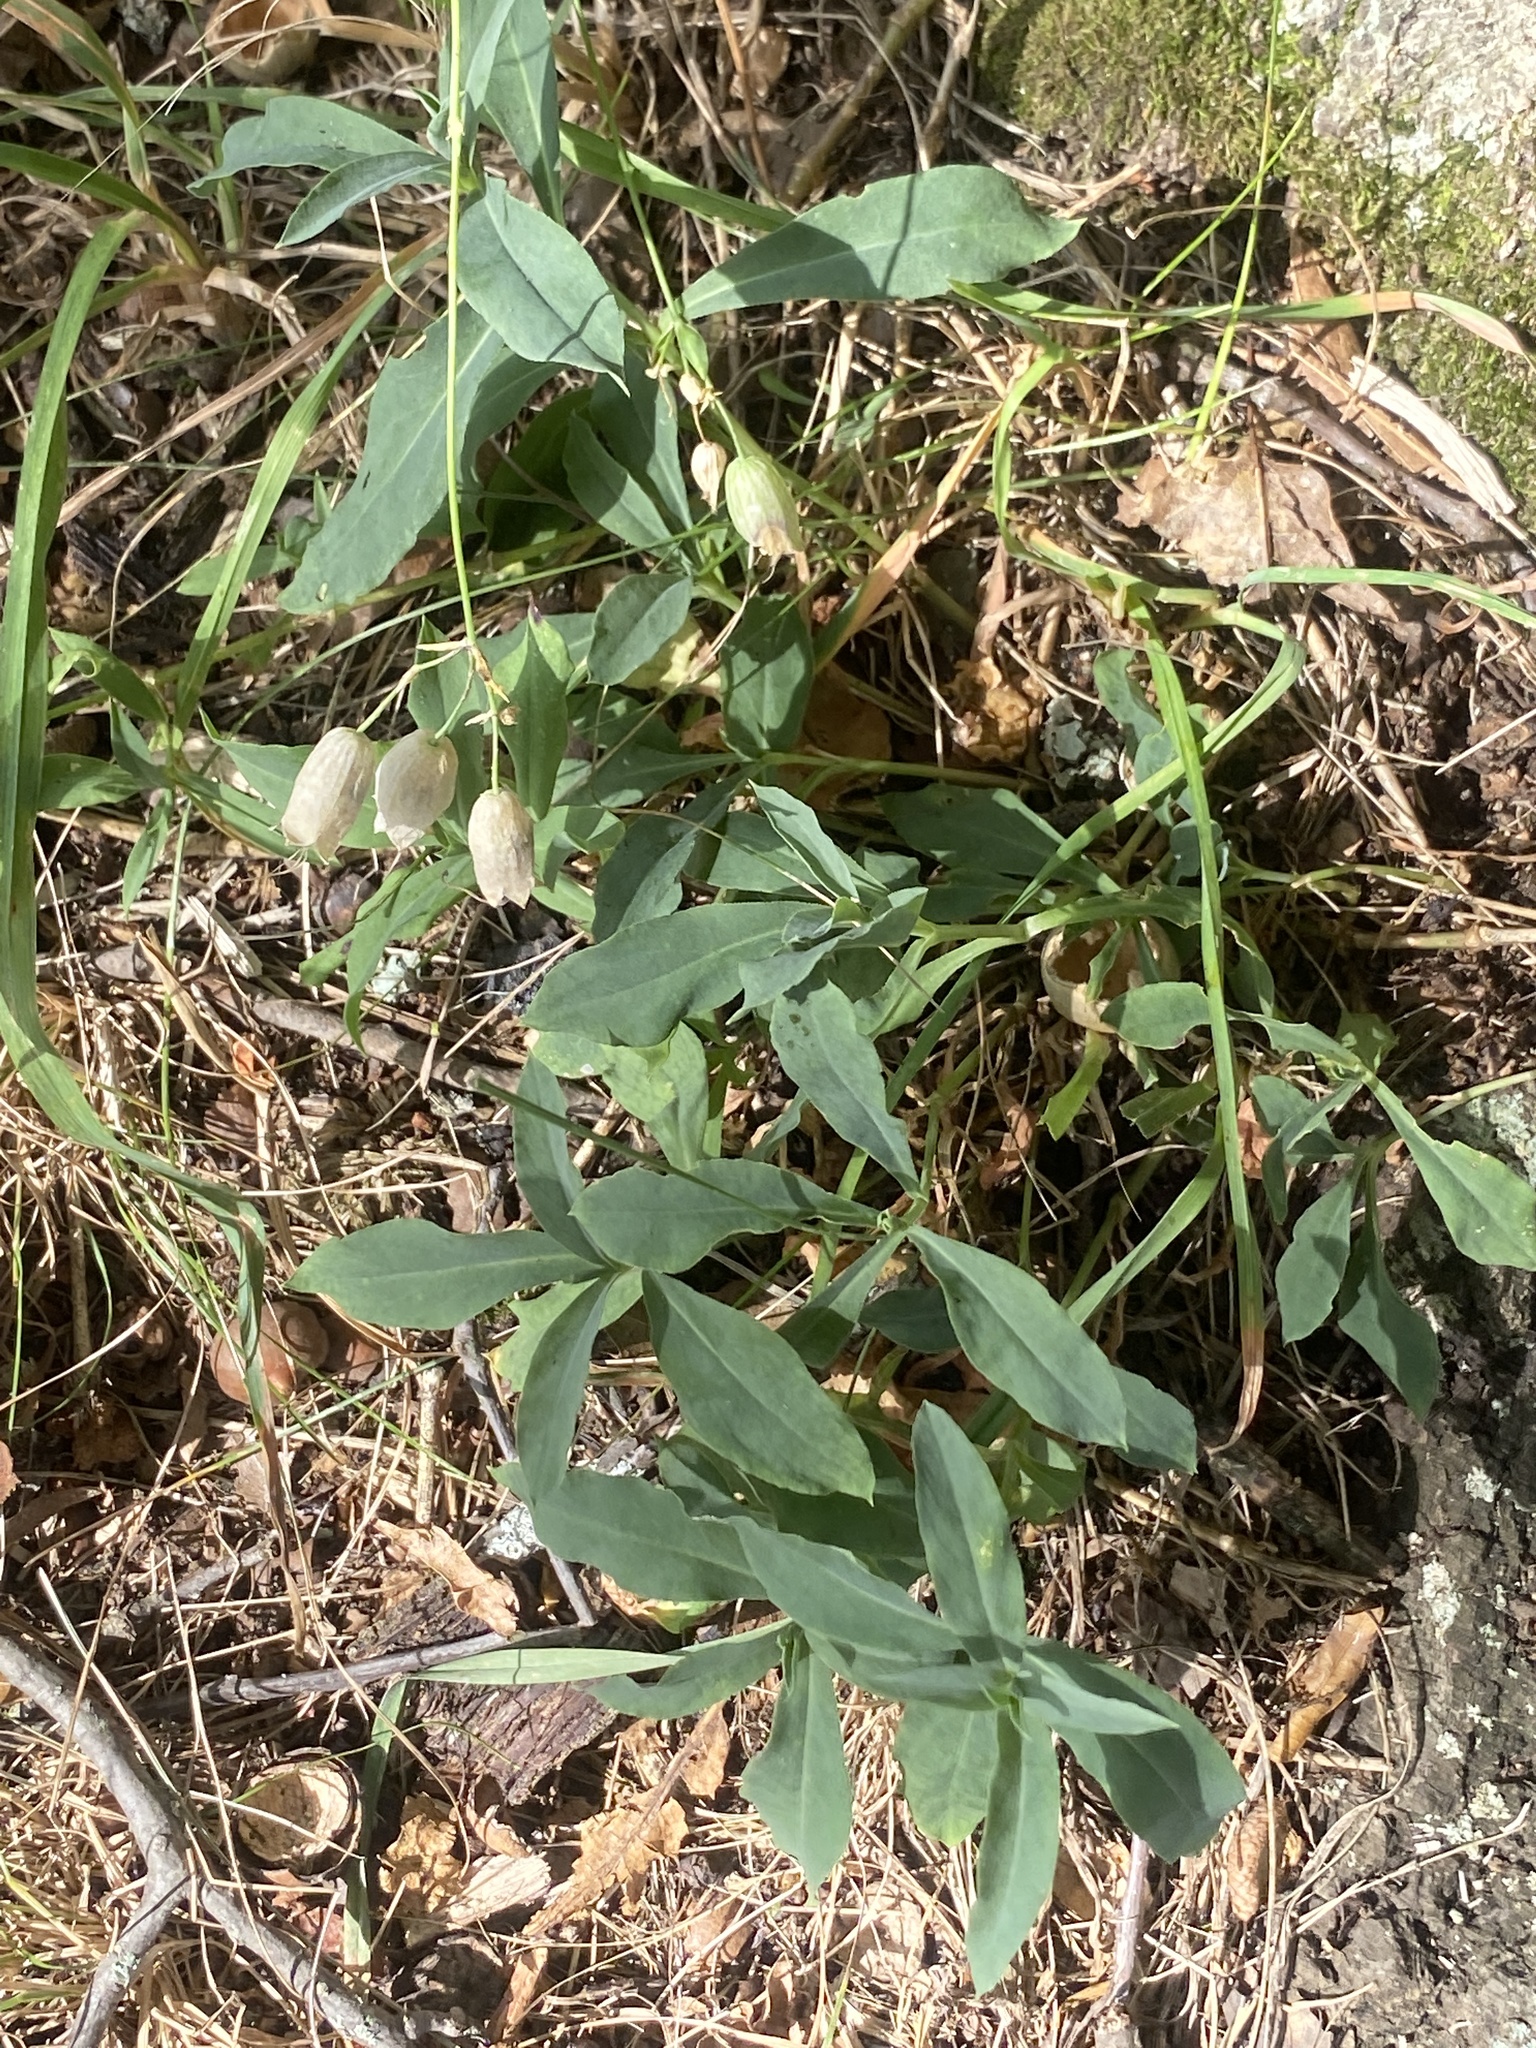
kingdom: Plantae
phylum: Tracheophyta
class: Magnoliopsida
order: Caryophyllales
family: Caryophyllaceae
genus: Silene
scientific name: Silene vulgaris
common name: Bladder campion
